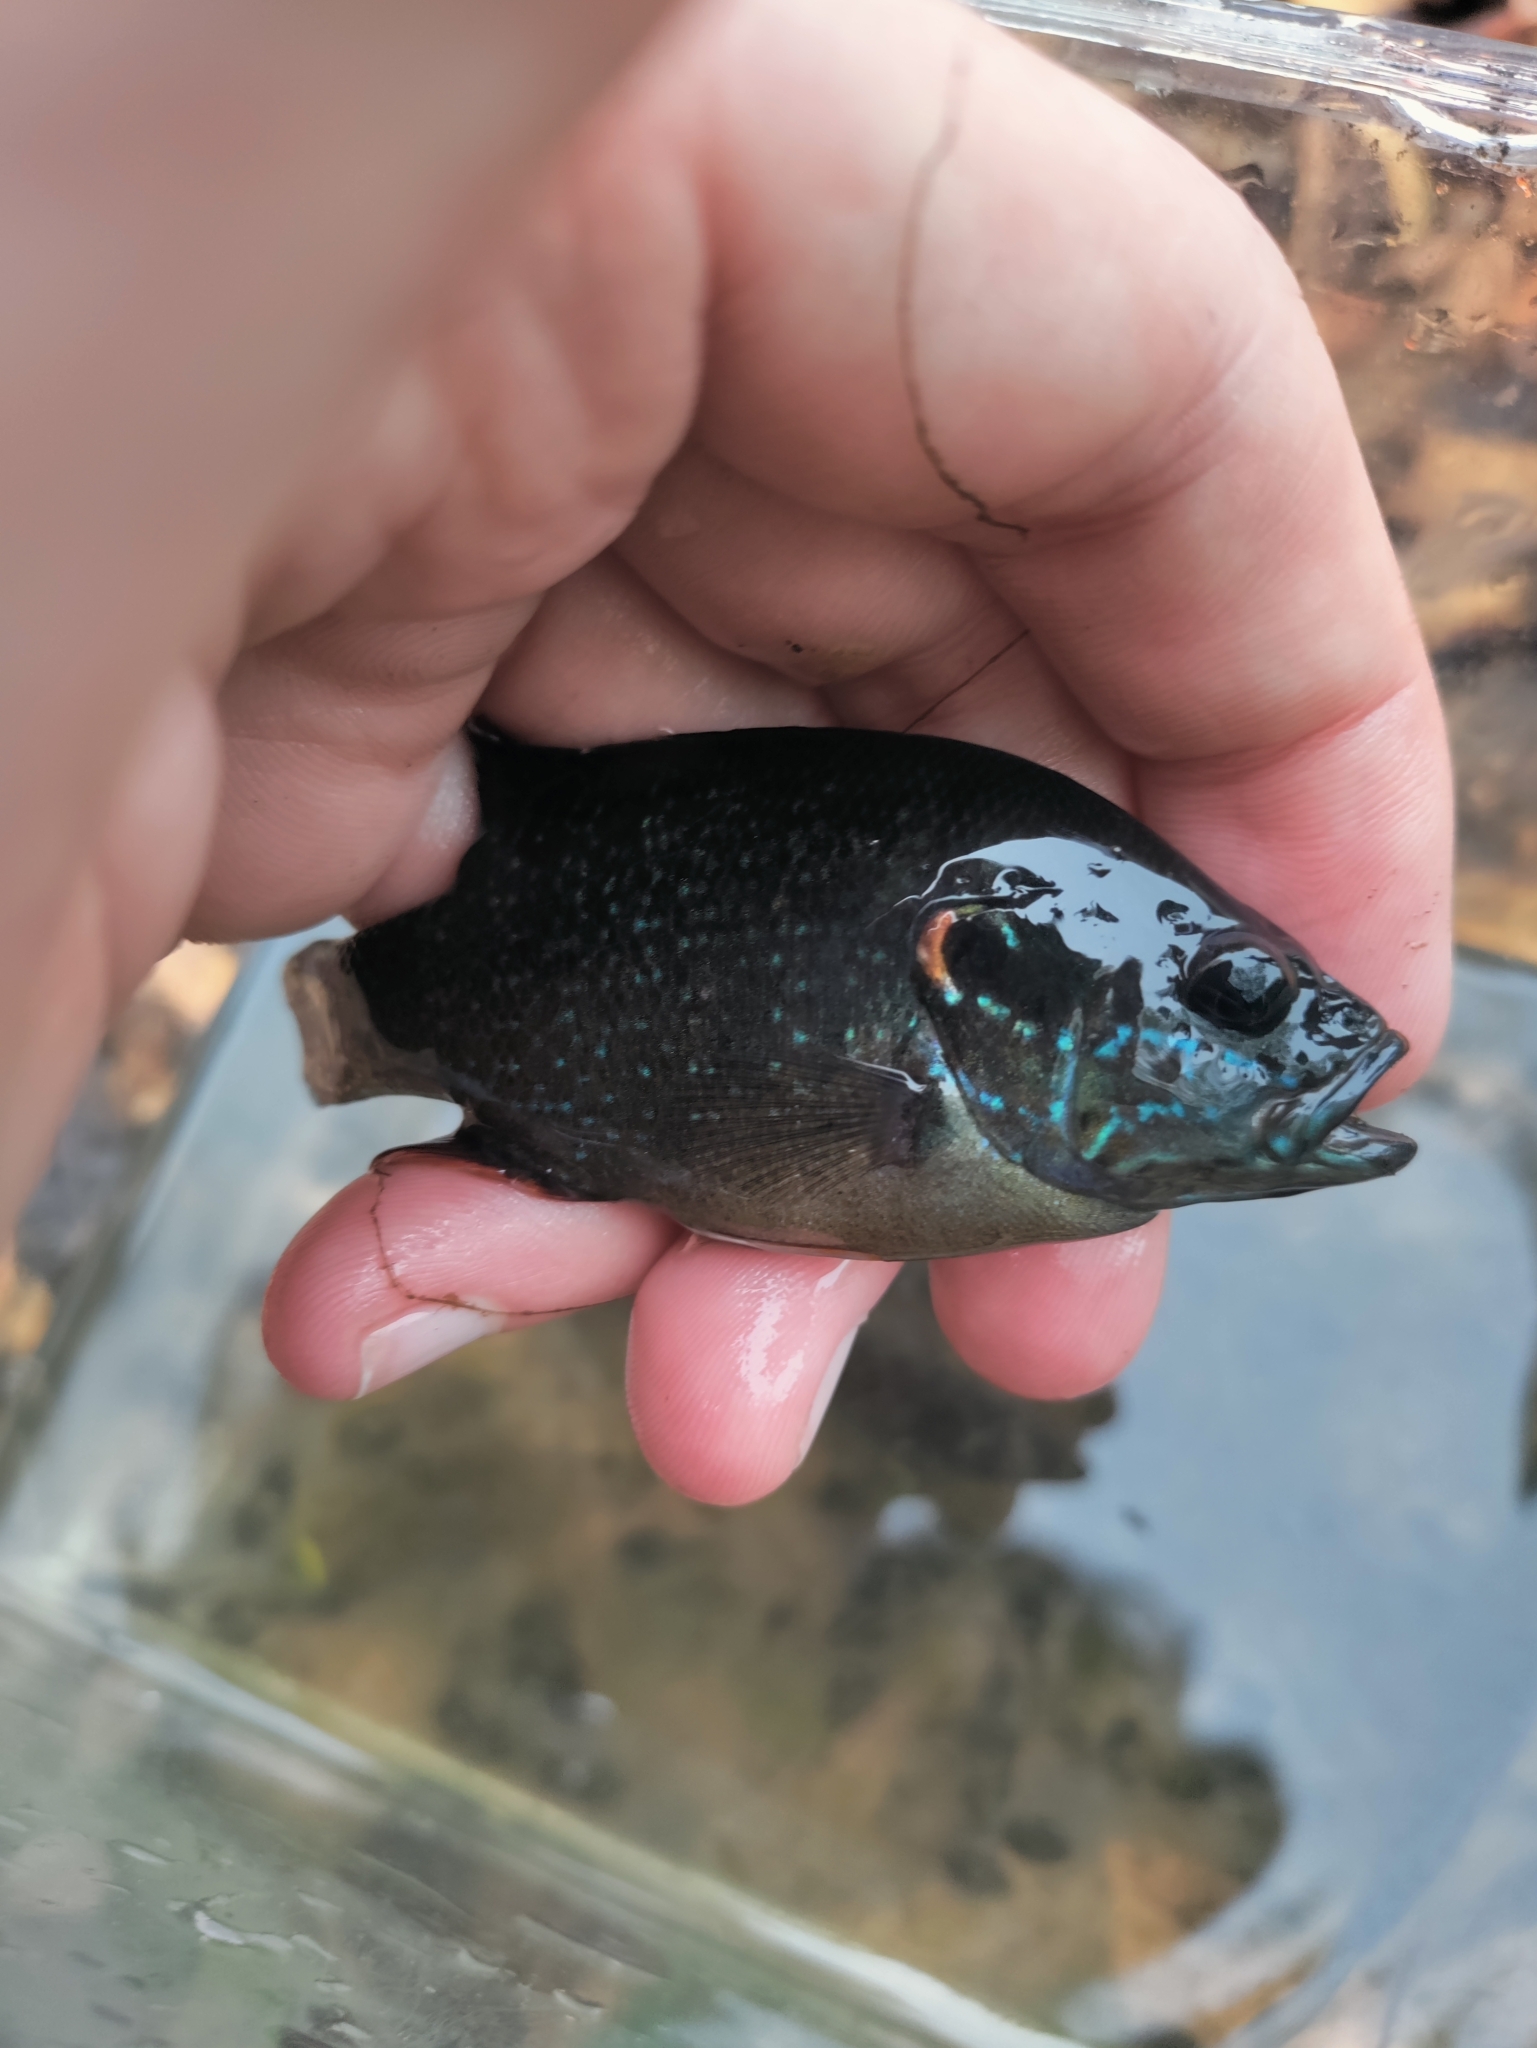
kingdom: Animalia
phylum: Chordata
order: Perciformes
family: Centrarchidae
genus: Lepomis
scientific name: Lepomis cyanellus
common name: Green sunfish
